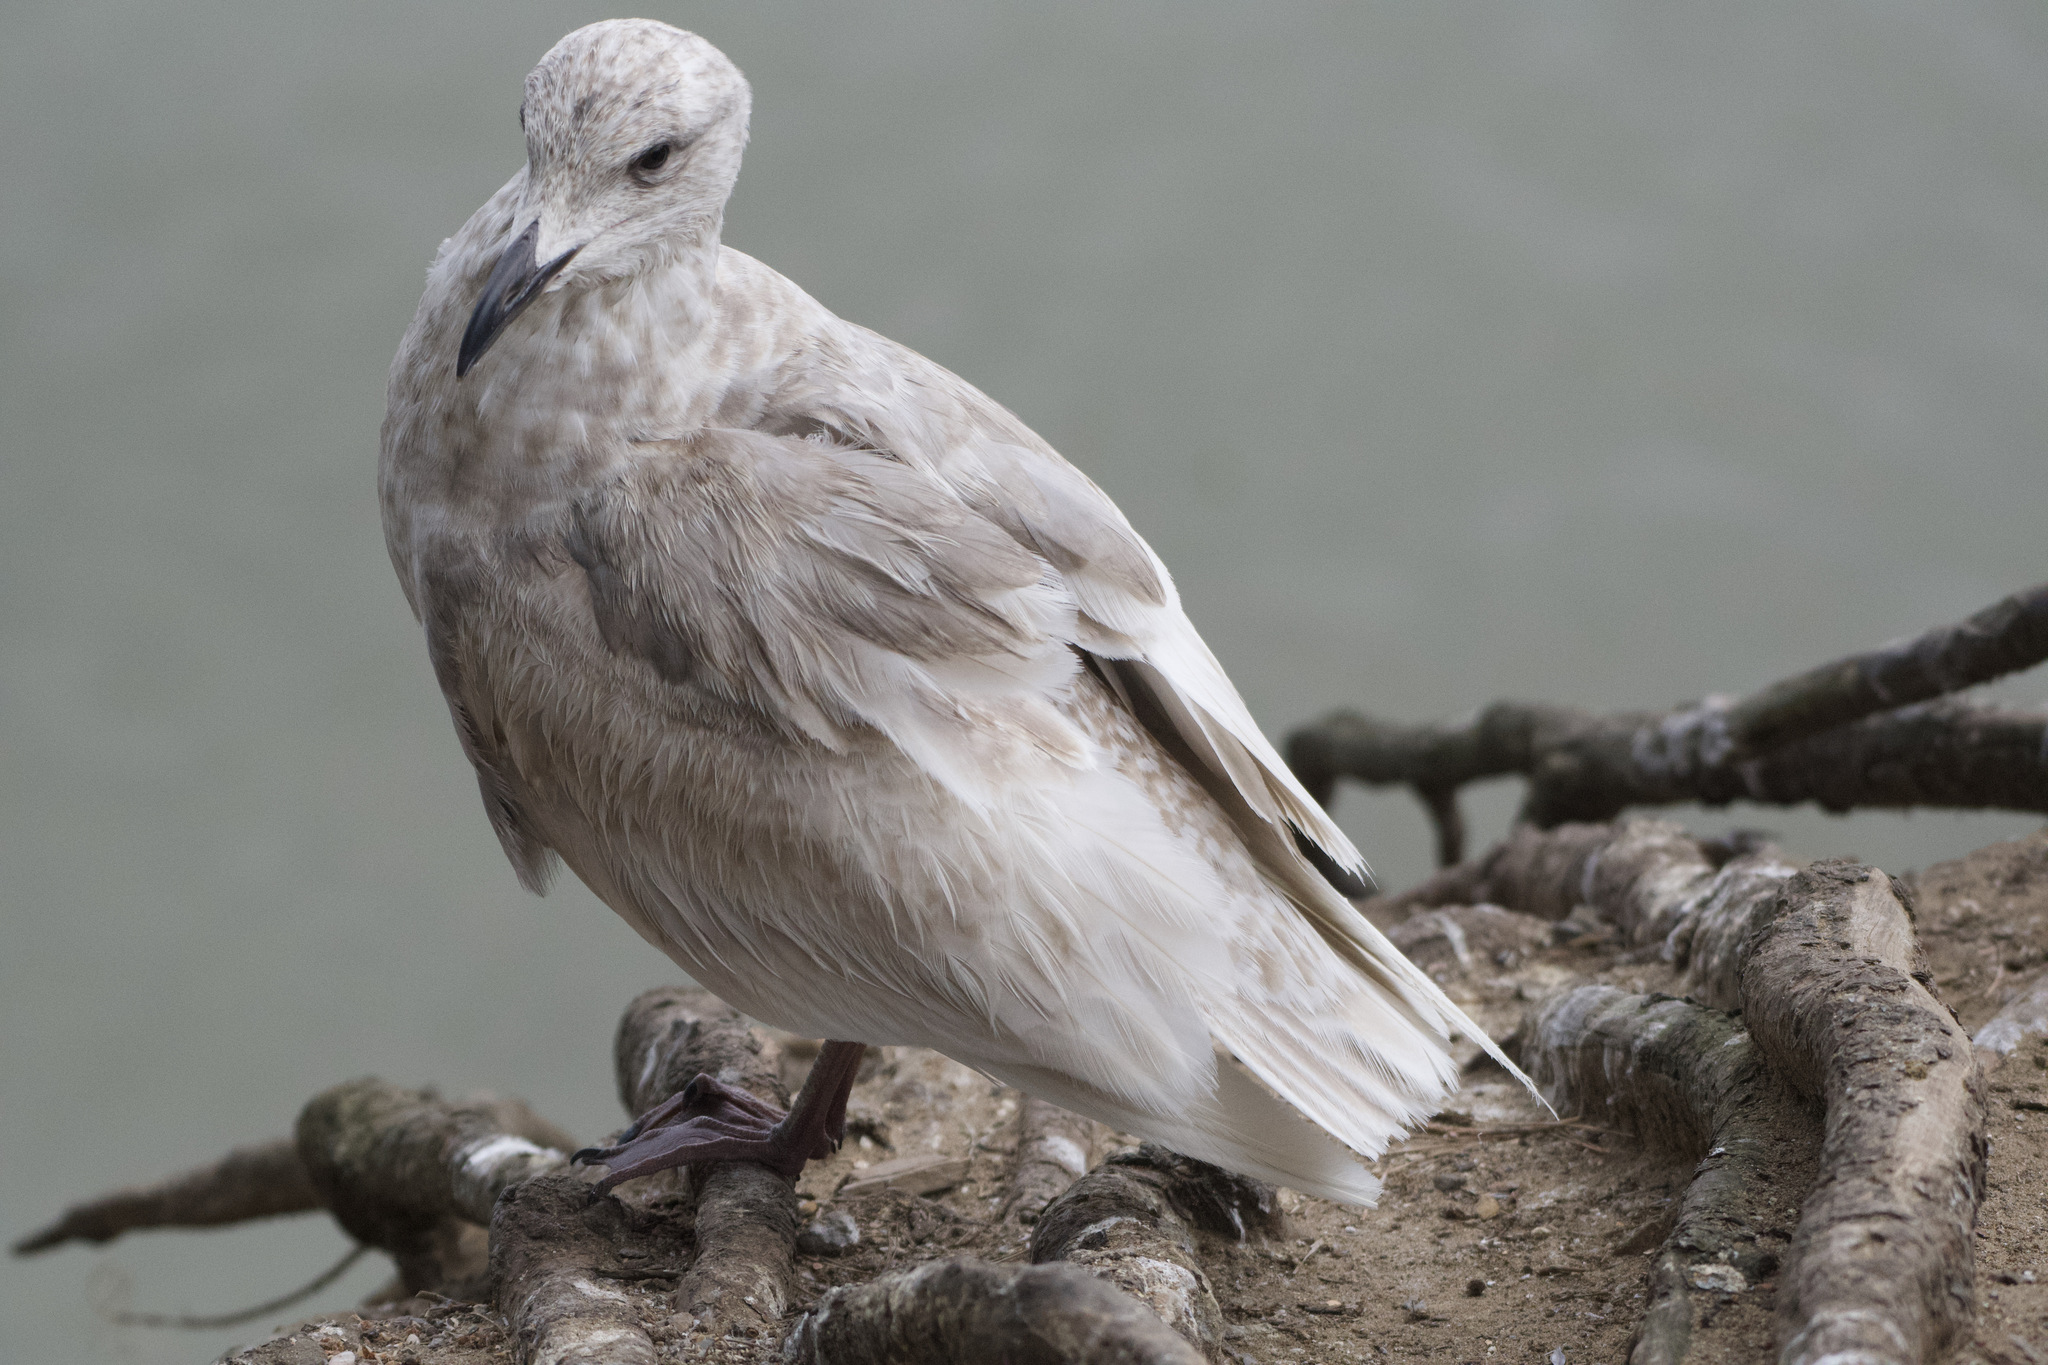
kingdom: Animalia
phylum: Chordata
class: Aves
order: Charadriiformes
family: Laridae
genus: Larus
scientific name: Larus glaucescens
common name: Glaucous-winged gull
